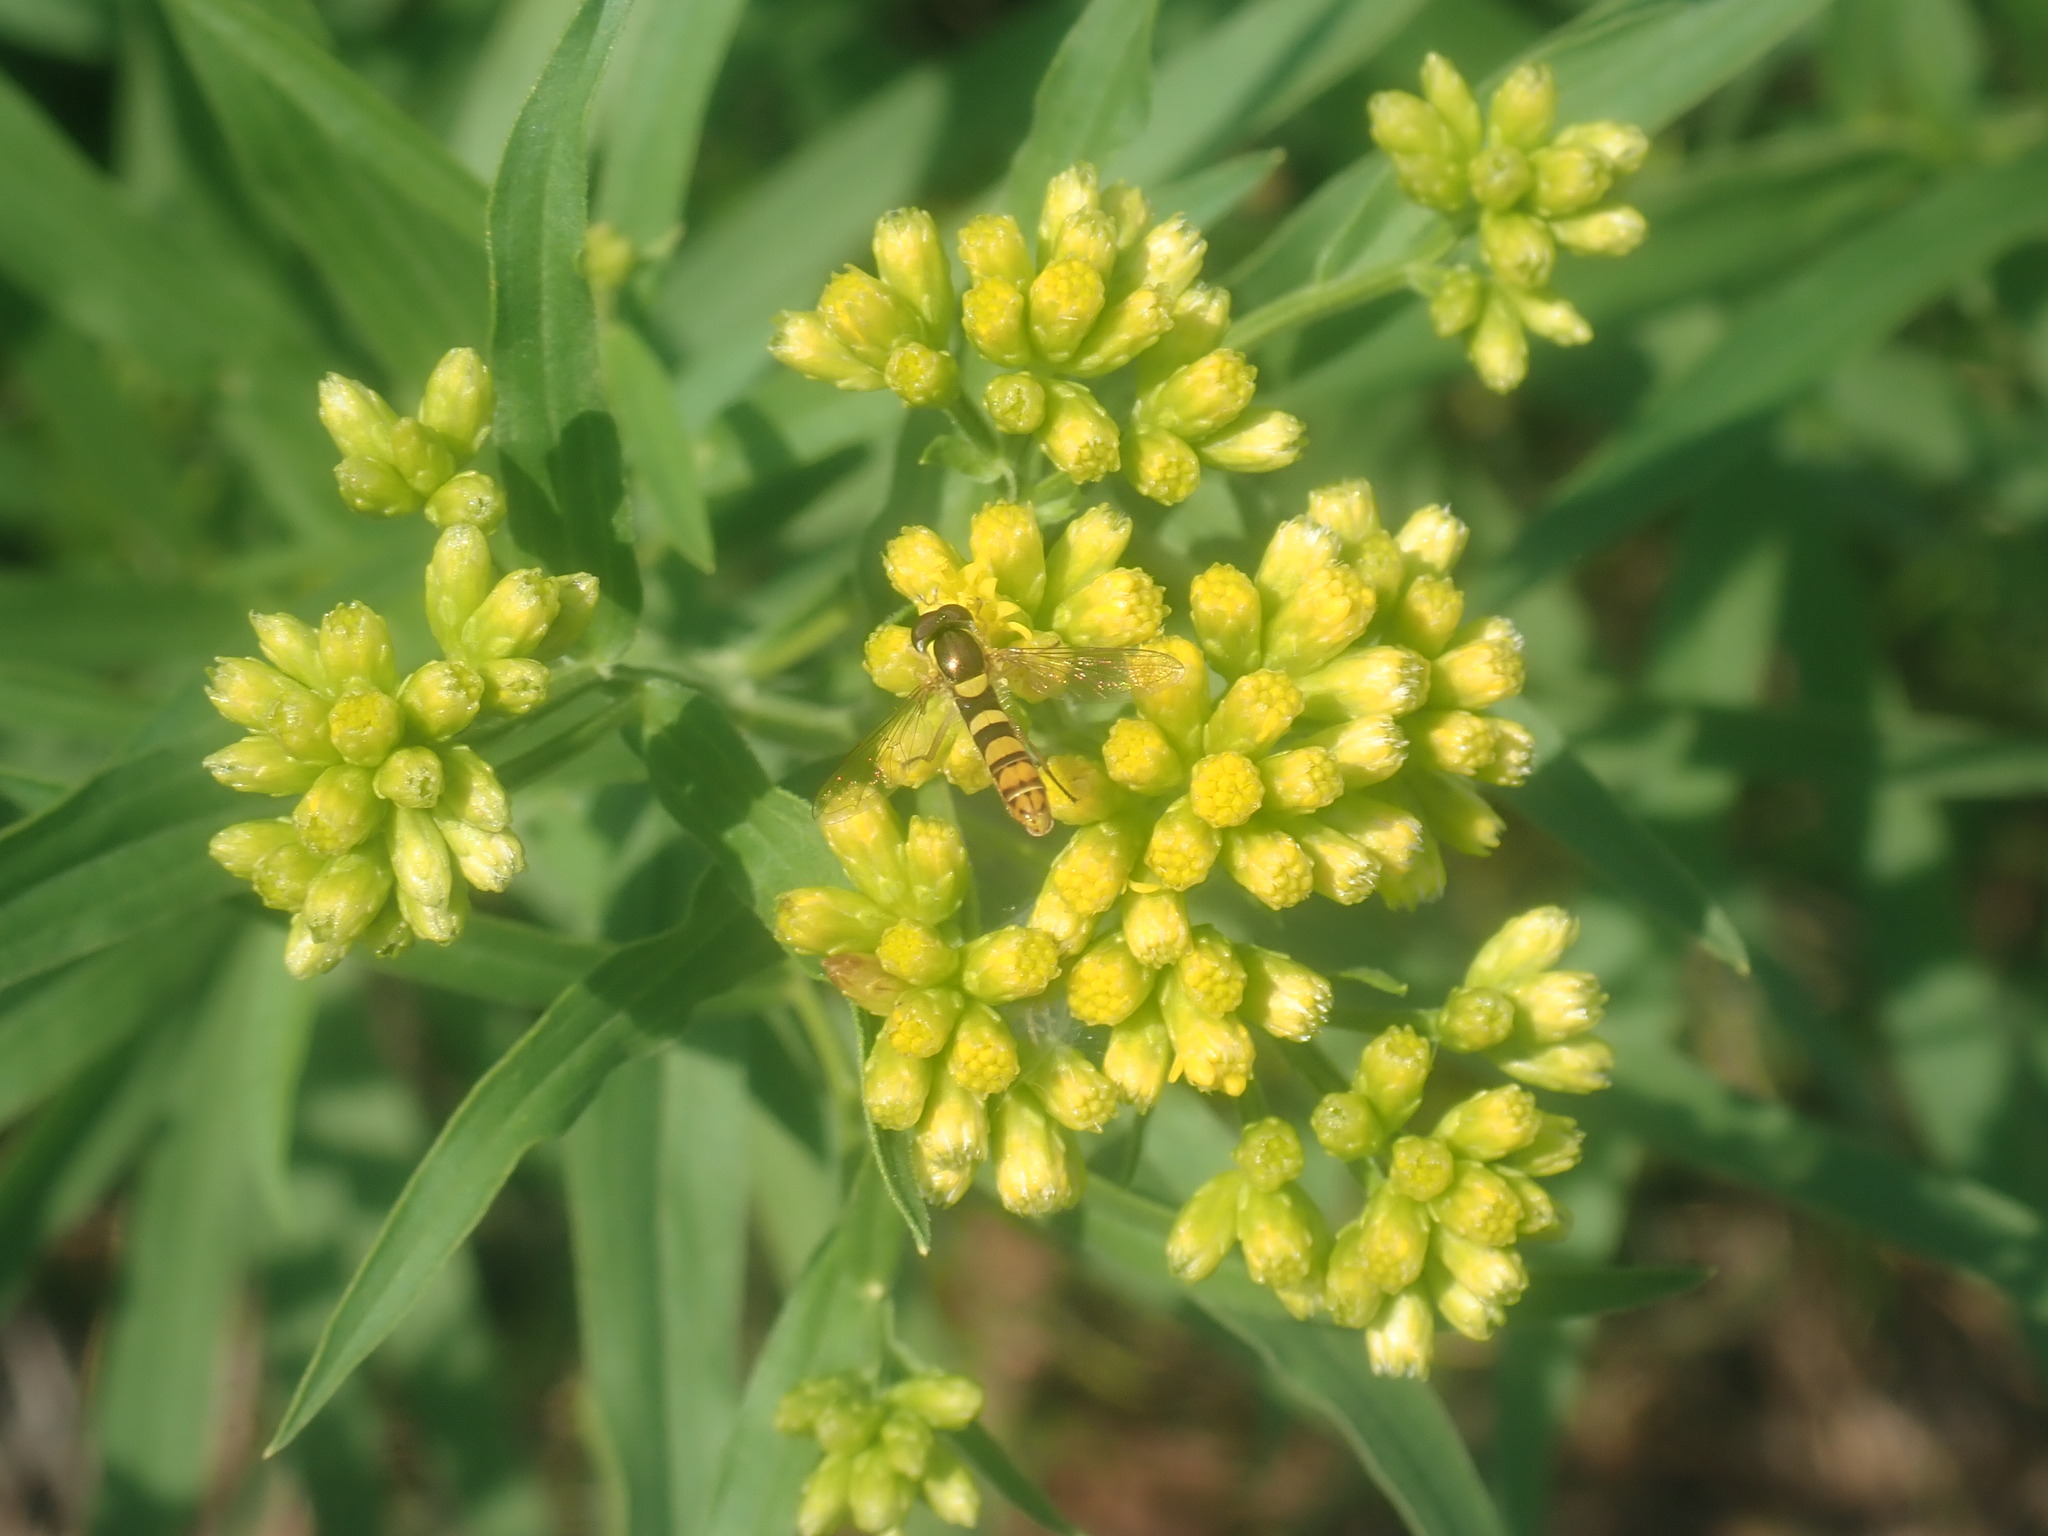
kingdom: Animalia
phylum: Arthropoda
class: Insecta
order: Diptera
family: Syrphidae
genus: Sphaerophoria
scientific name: Sphaerophoria
